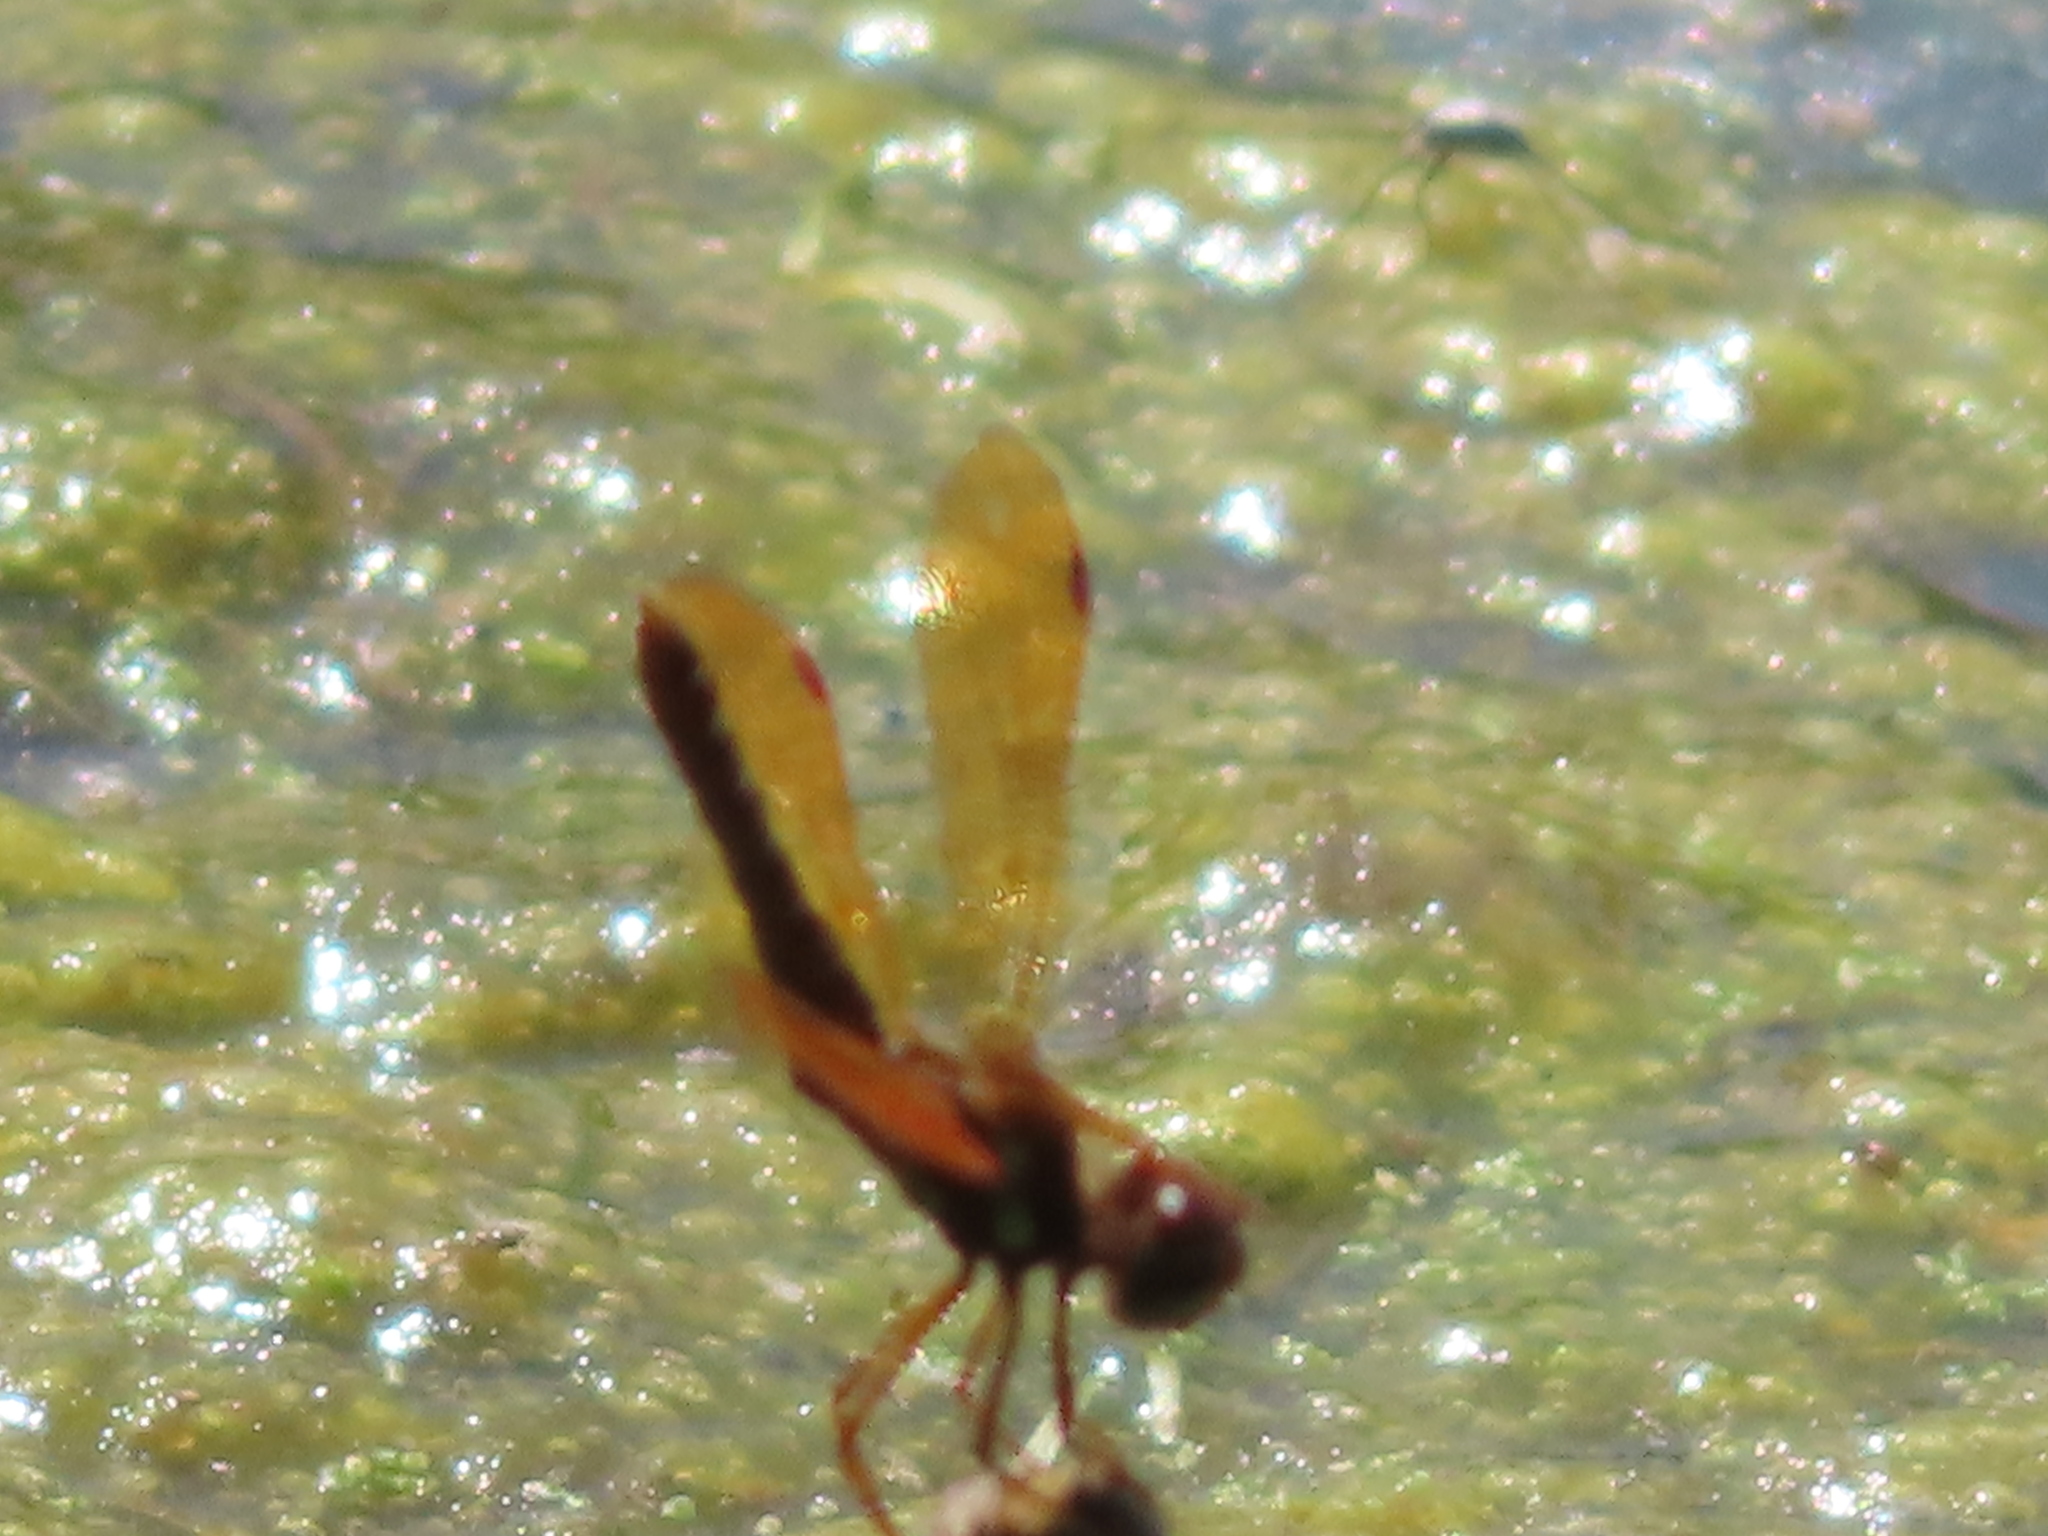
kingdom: Animalia
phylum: Arthropoda
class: Insecta
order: Odonata
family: Libellulidae
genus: Perithemis
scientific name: Perithemis tenera
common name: Eastern amberwing
